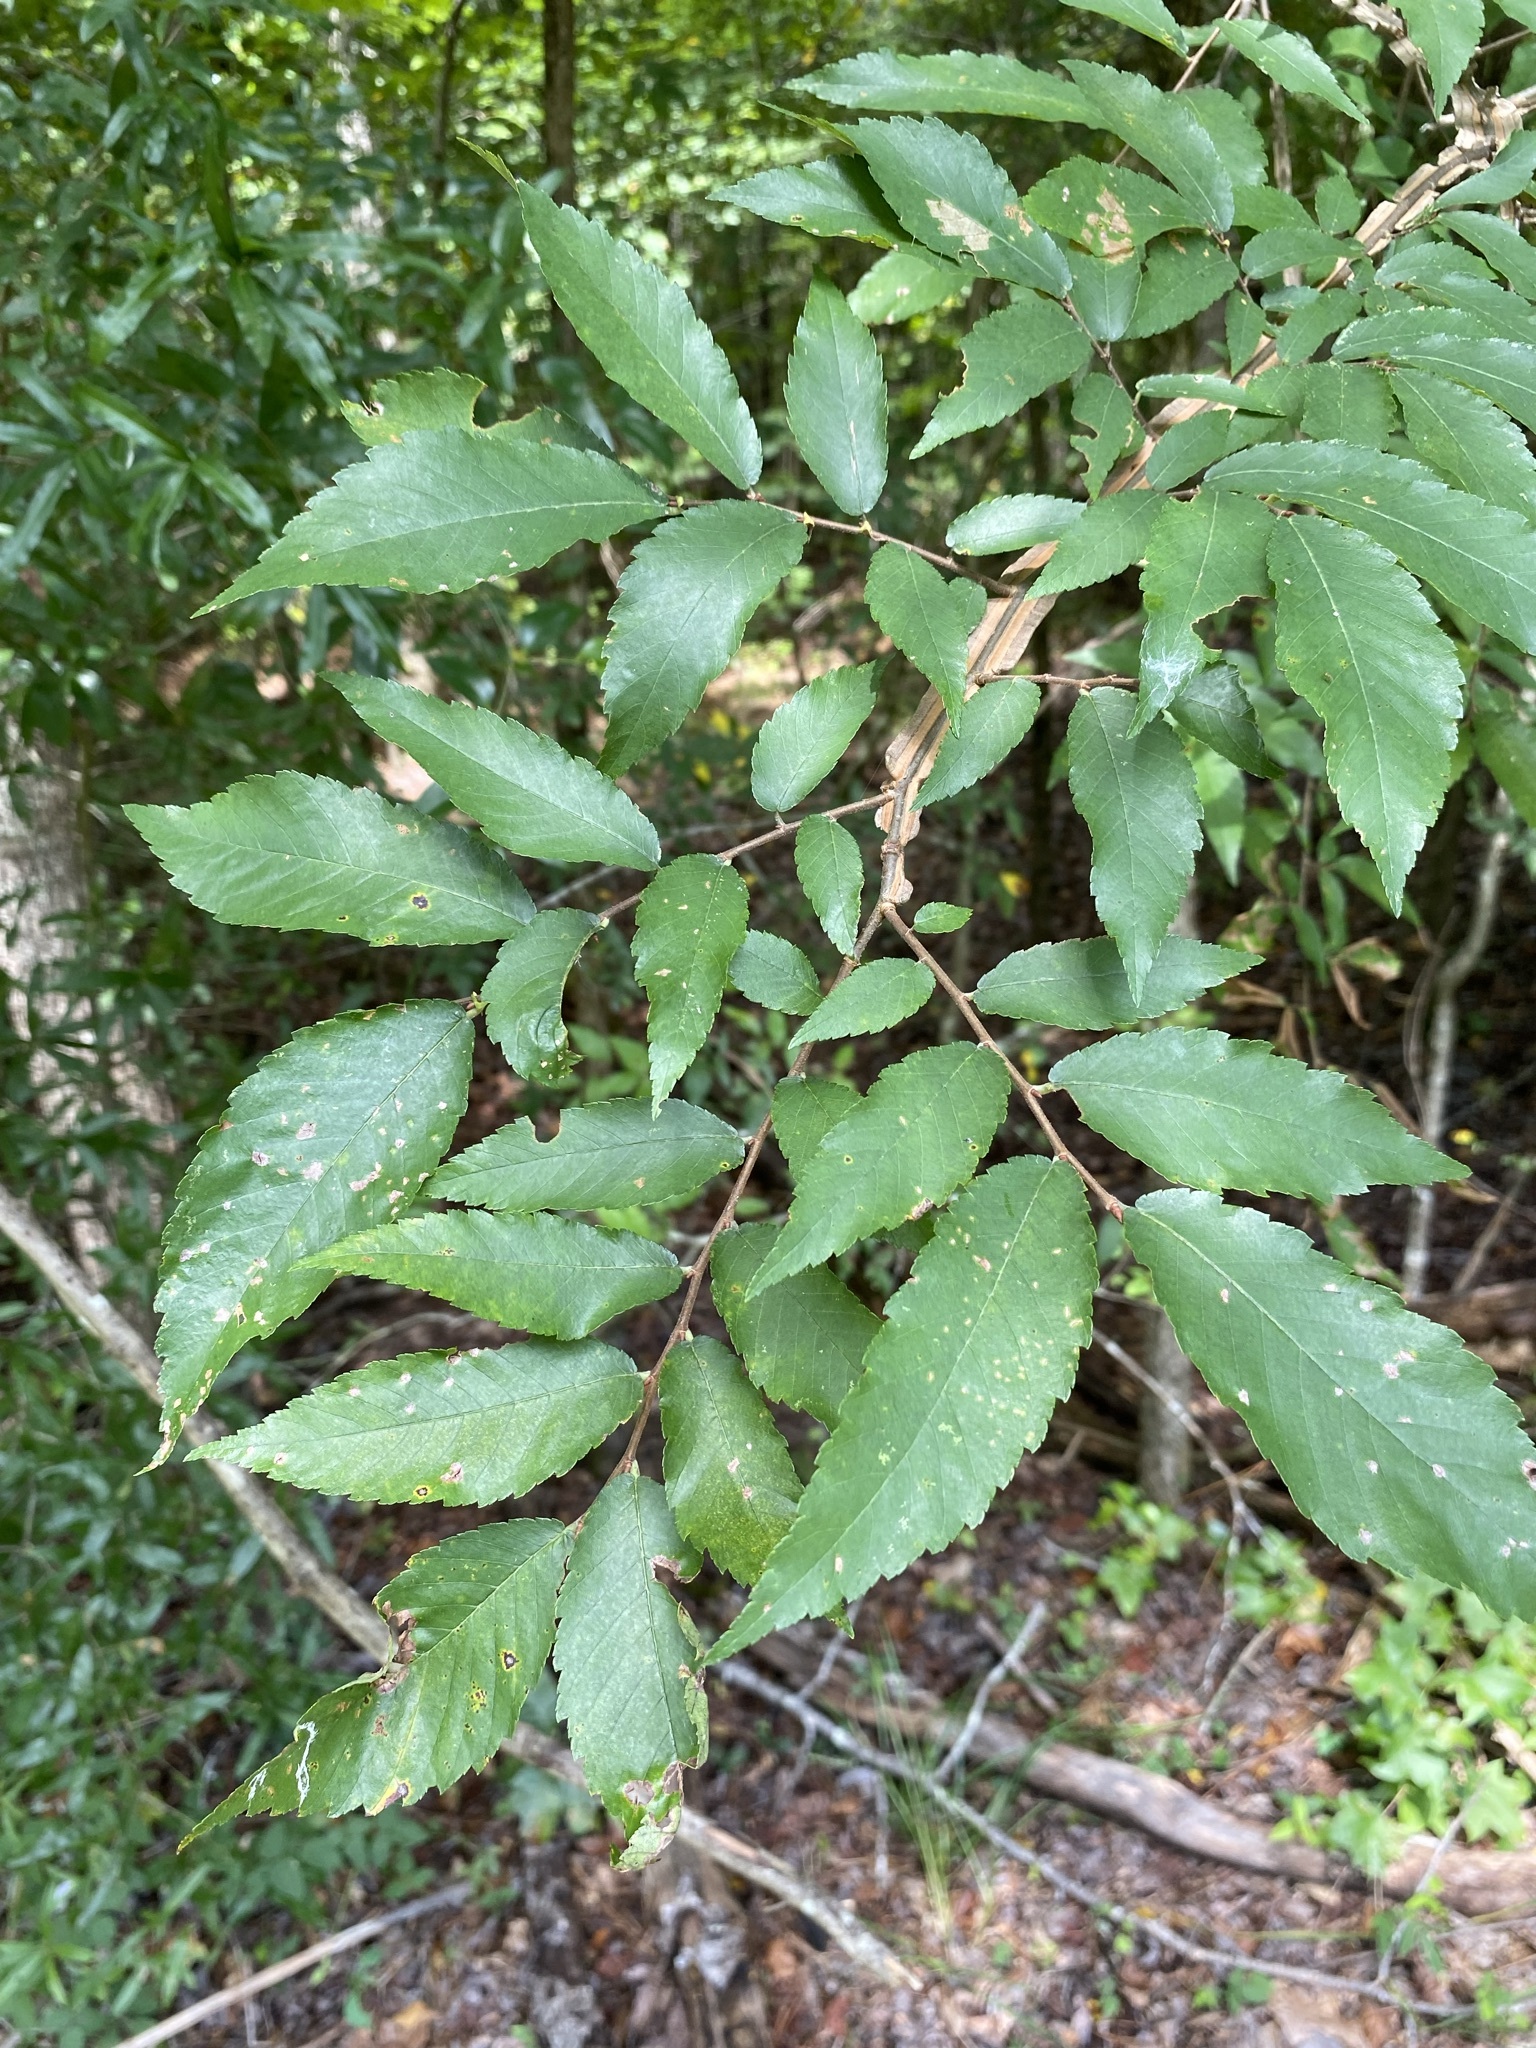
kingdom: Plantae
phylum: Tracheophyta
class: Magnoliopsida
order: Rosales
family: Ulmaceae
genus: Ulmus
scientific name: Ulmus alata
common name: Winged elm
